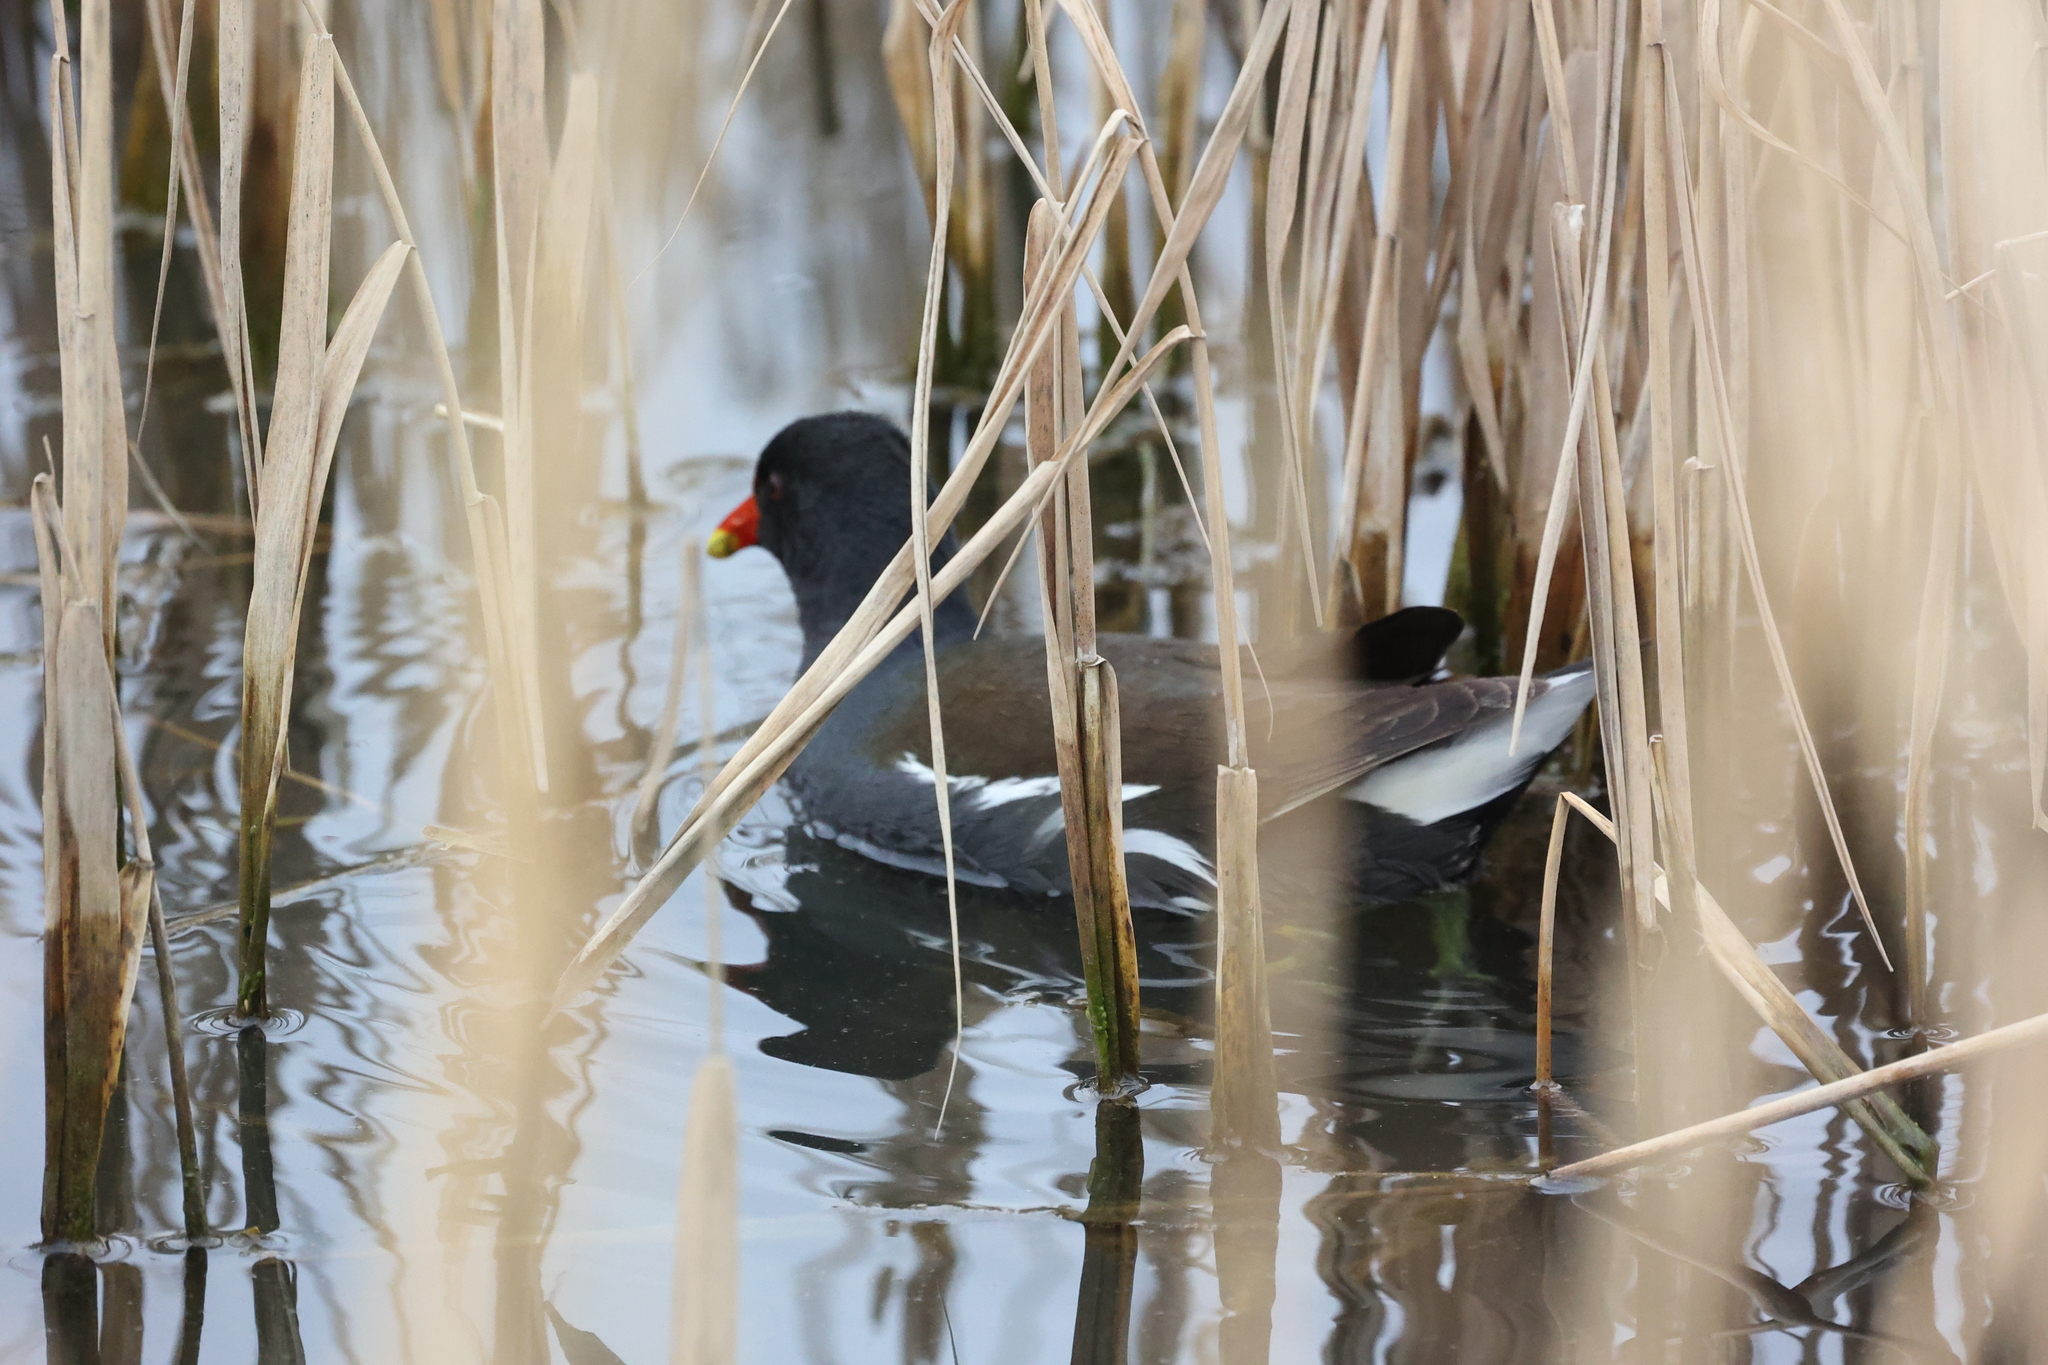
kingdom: Animalia
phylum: Chordata
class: Aves
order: Gruiformes
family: Rallidae
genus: Gallinula
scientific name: Gallinula chloropus
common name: Common moorhen
